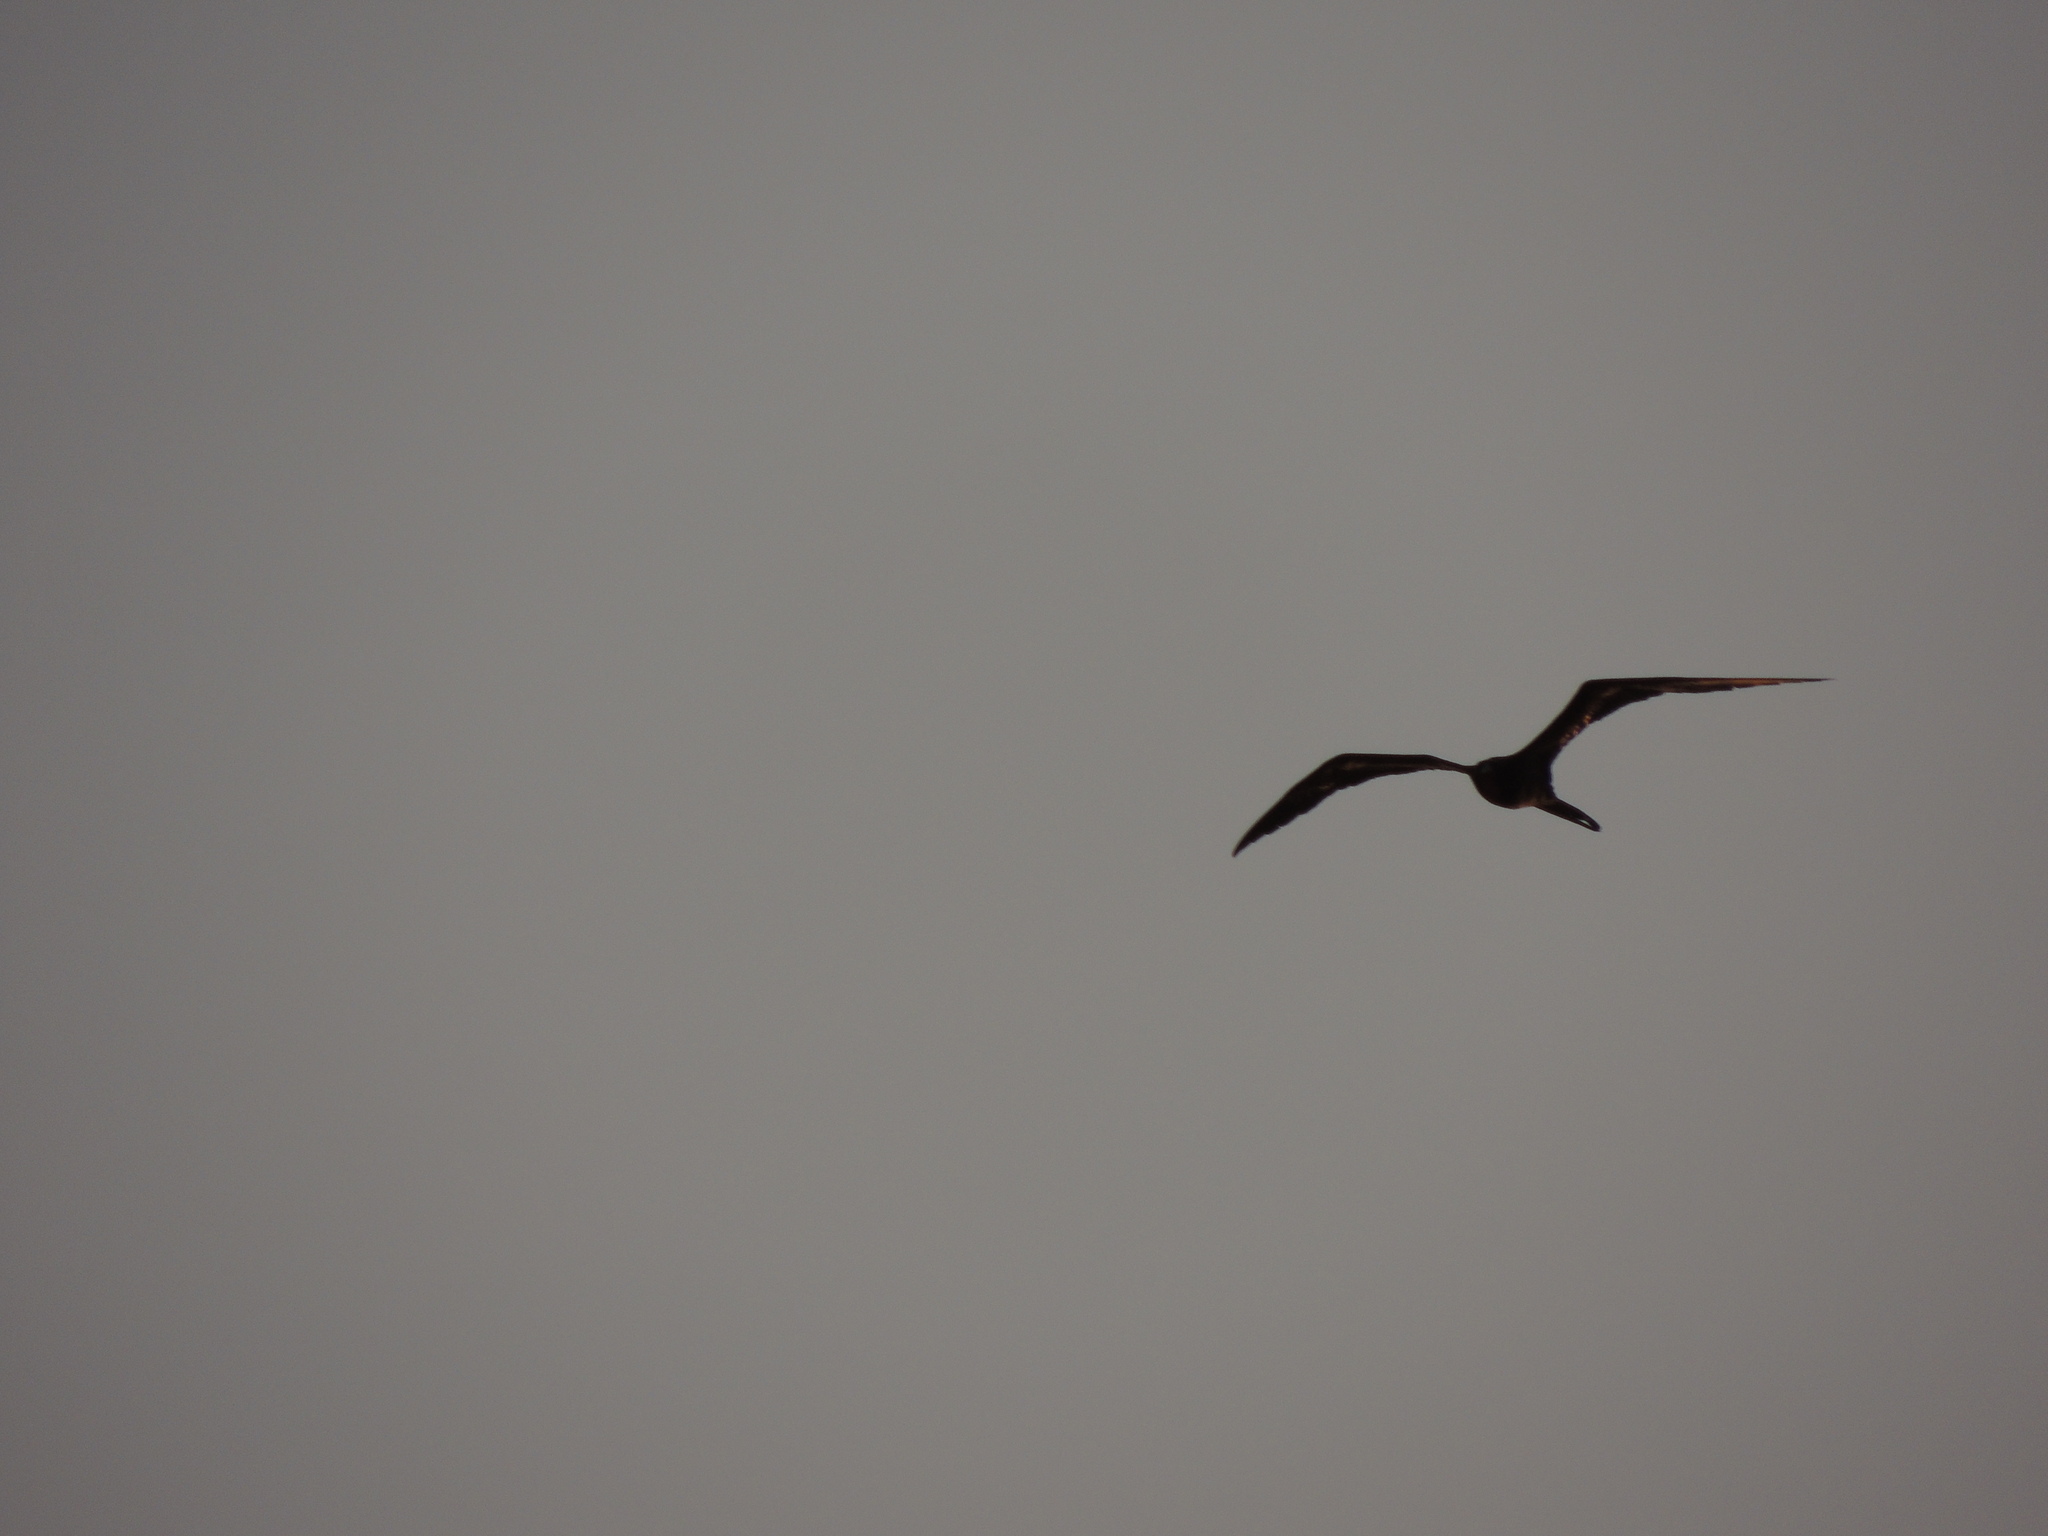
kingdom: Animalia
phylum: Chordata
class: Aves
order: Suliformes
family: Fregatidae
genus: Fregata
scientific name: Fregata magnificens
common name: Magnificent frigatebird
